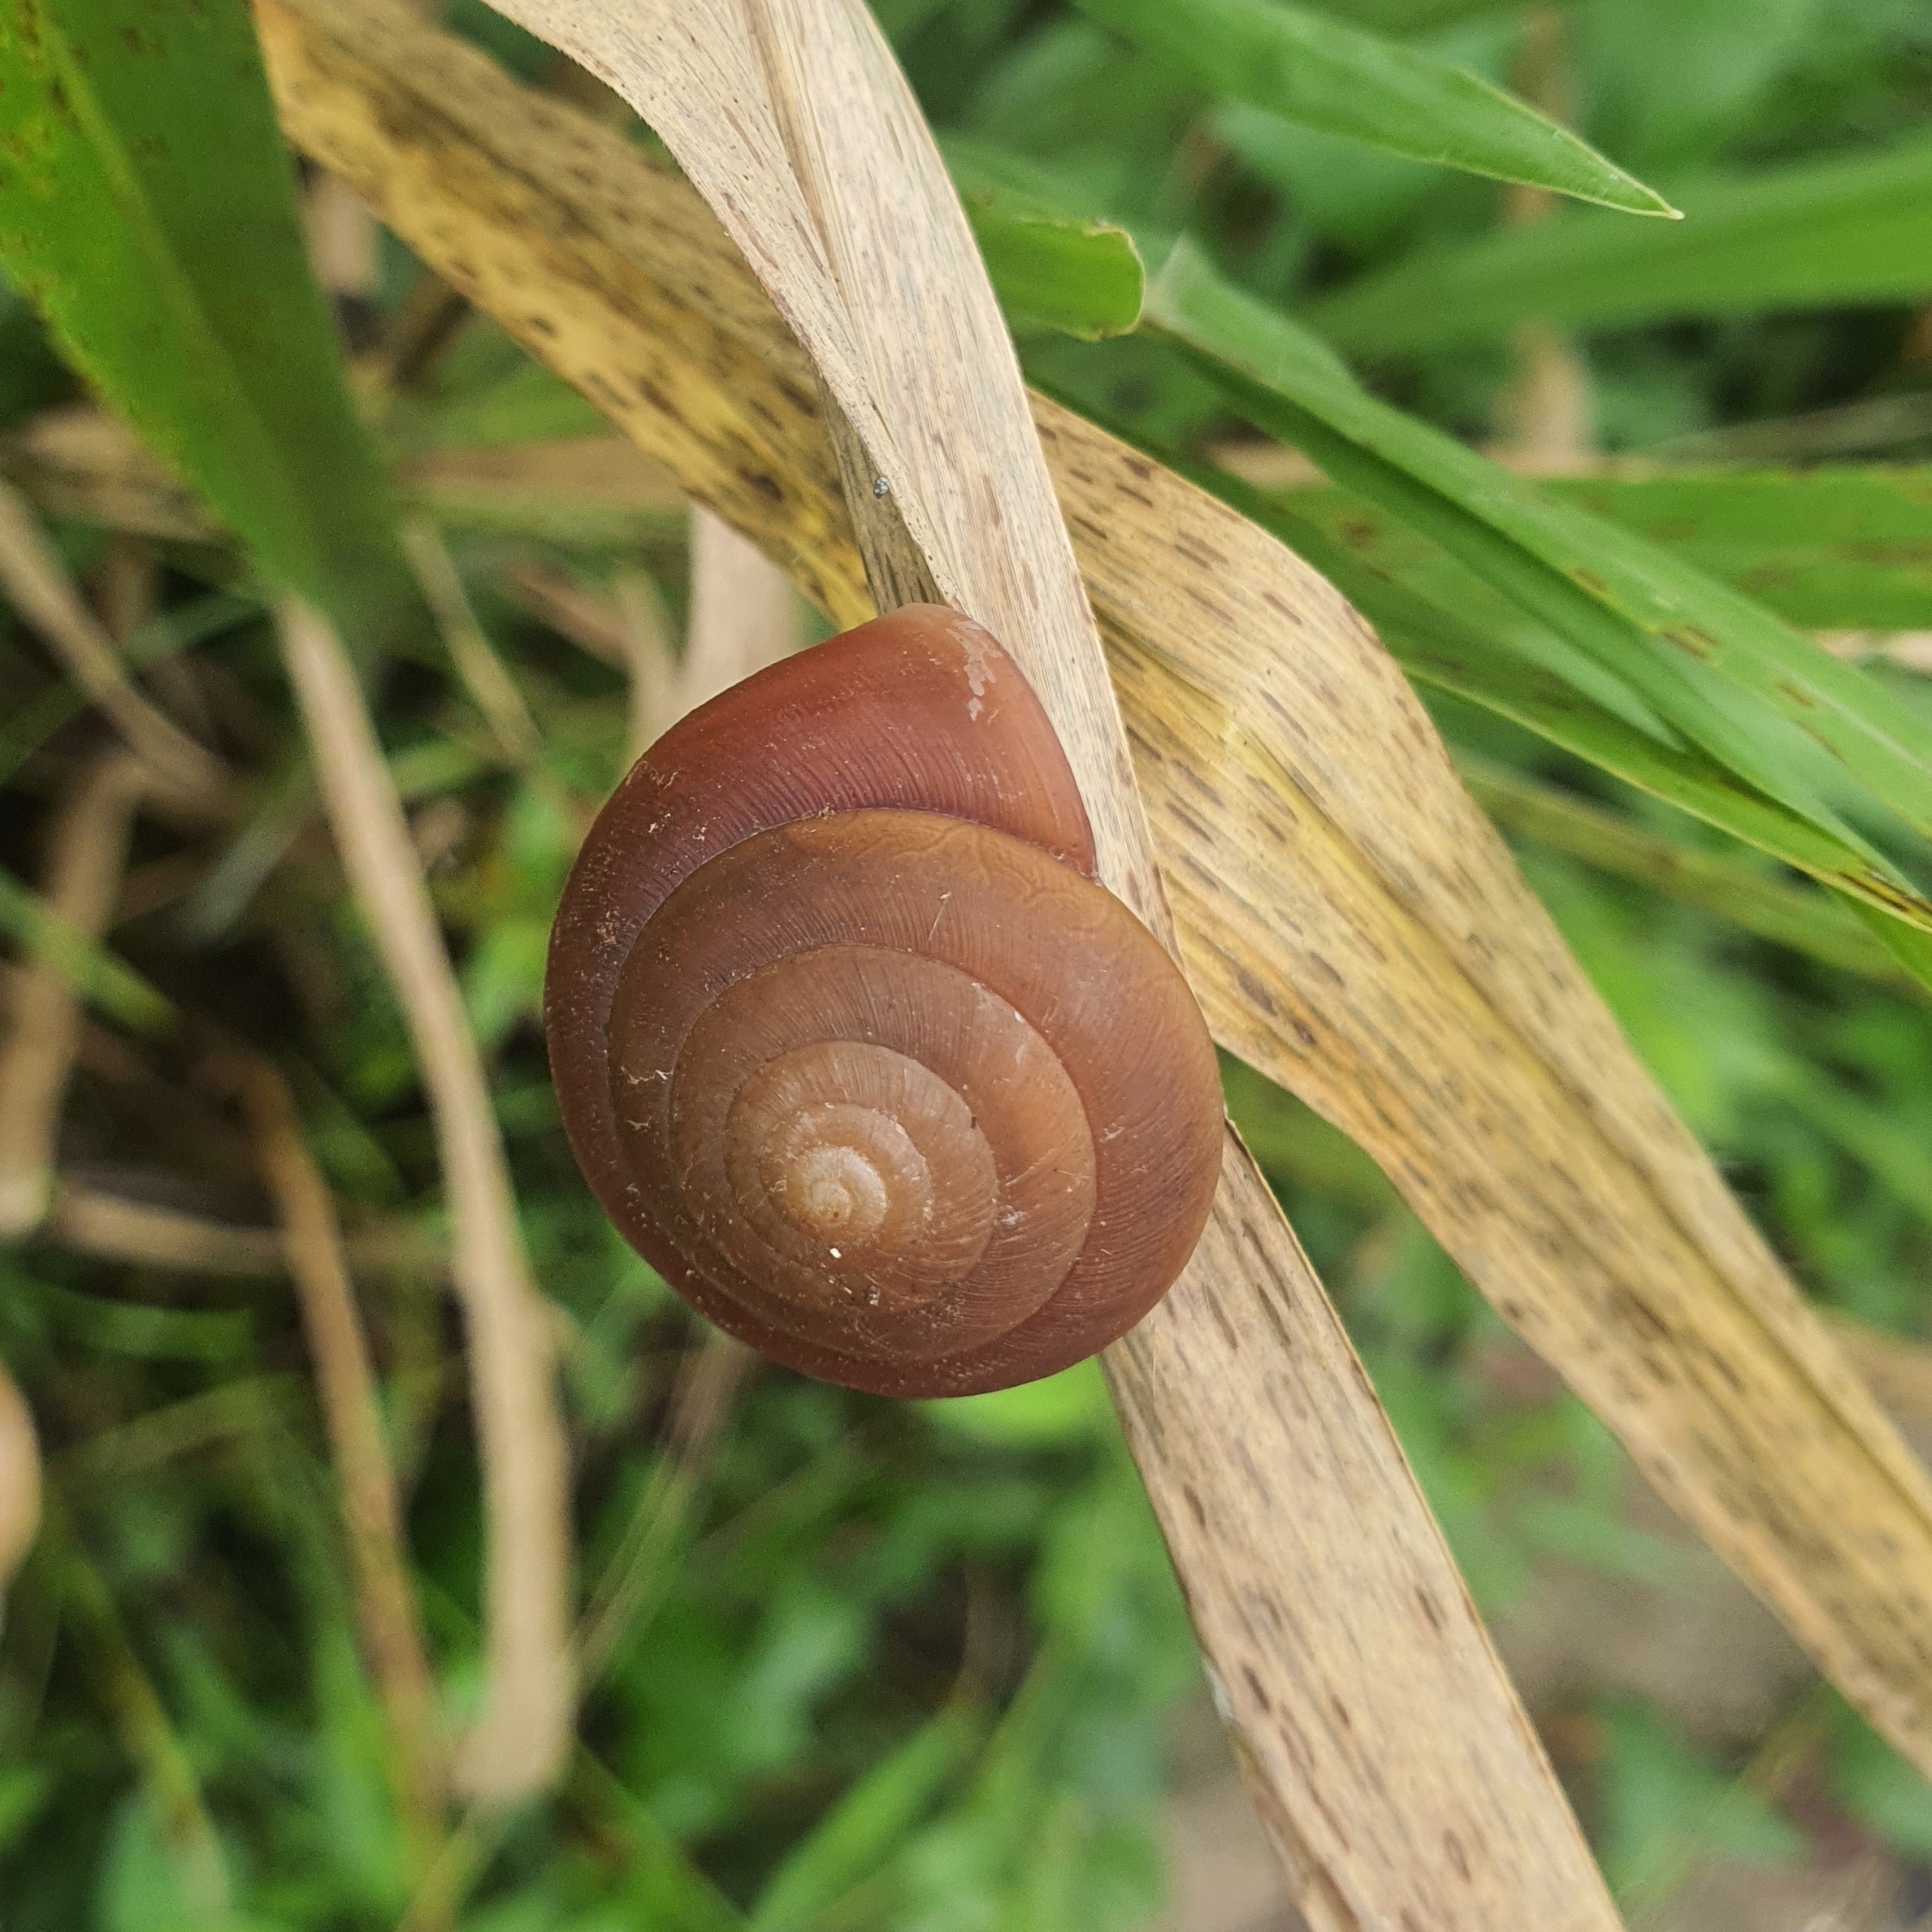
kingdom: Animalia
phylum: Mollusca
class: Gastropoda
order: Stylommatophora
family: Dyakiidae
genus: Quantula
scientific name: Quantula striata
